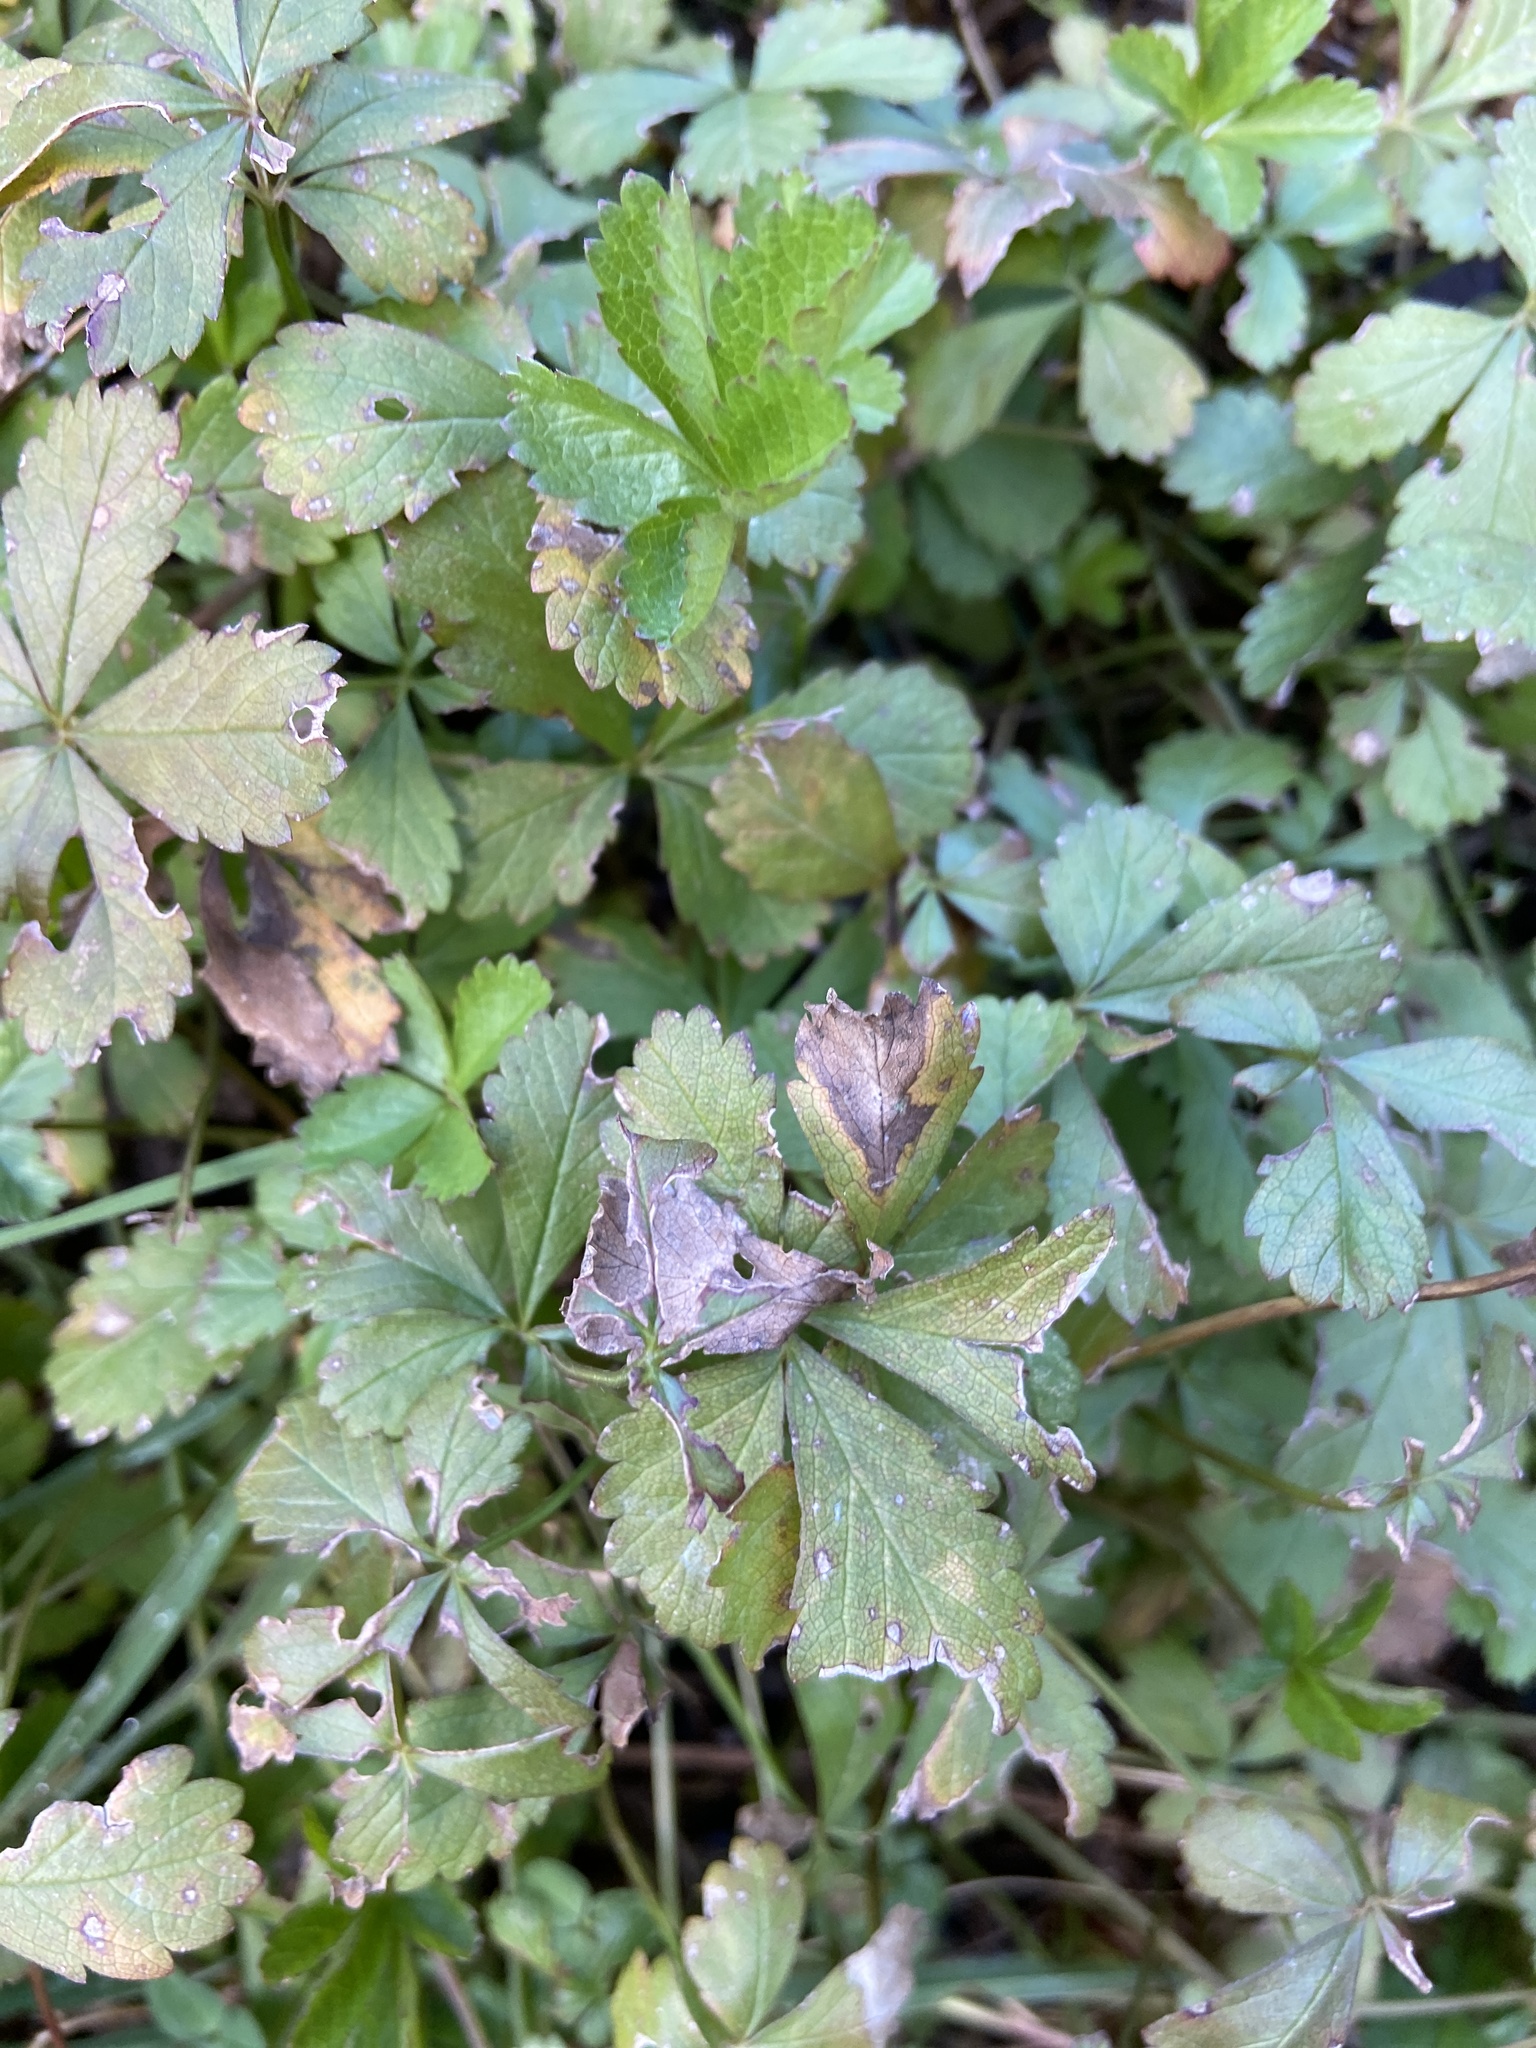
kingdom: Plantae
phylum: Tracheophyta
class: Magnoliopsida
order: Rosales
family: Rosaceae
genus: Potentilla
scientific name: Potentilla reptans
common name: Creeping cinquefoil
